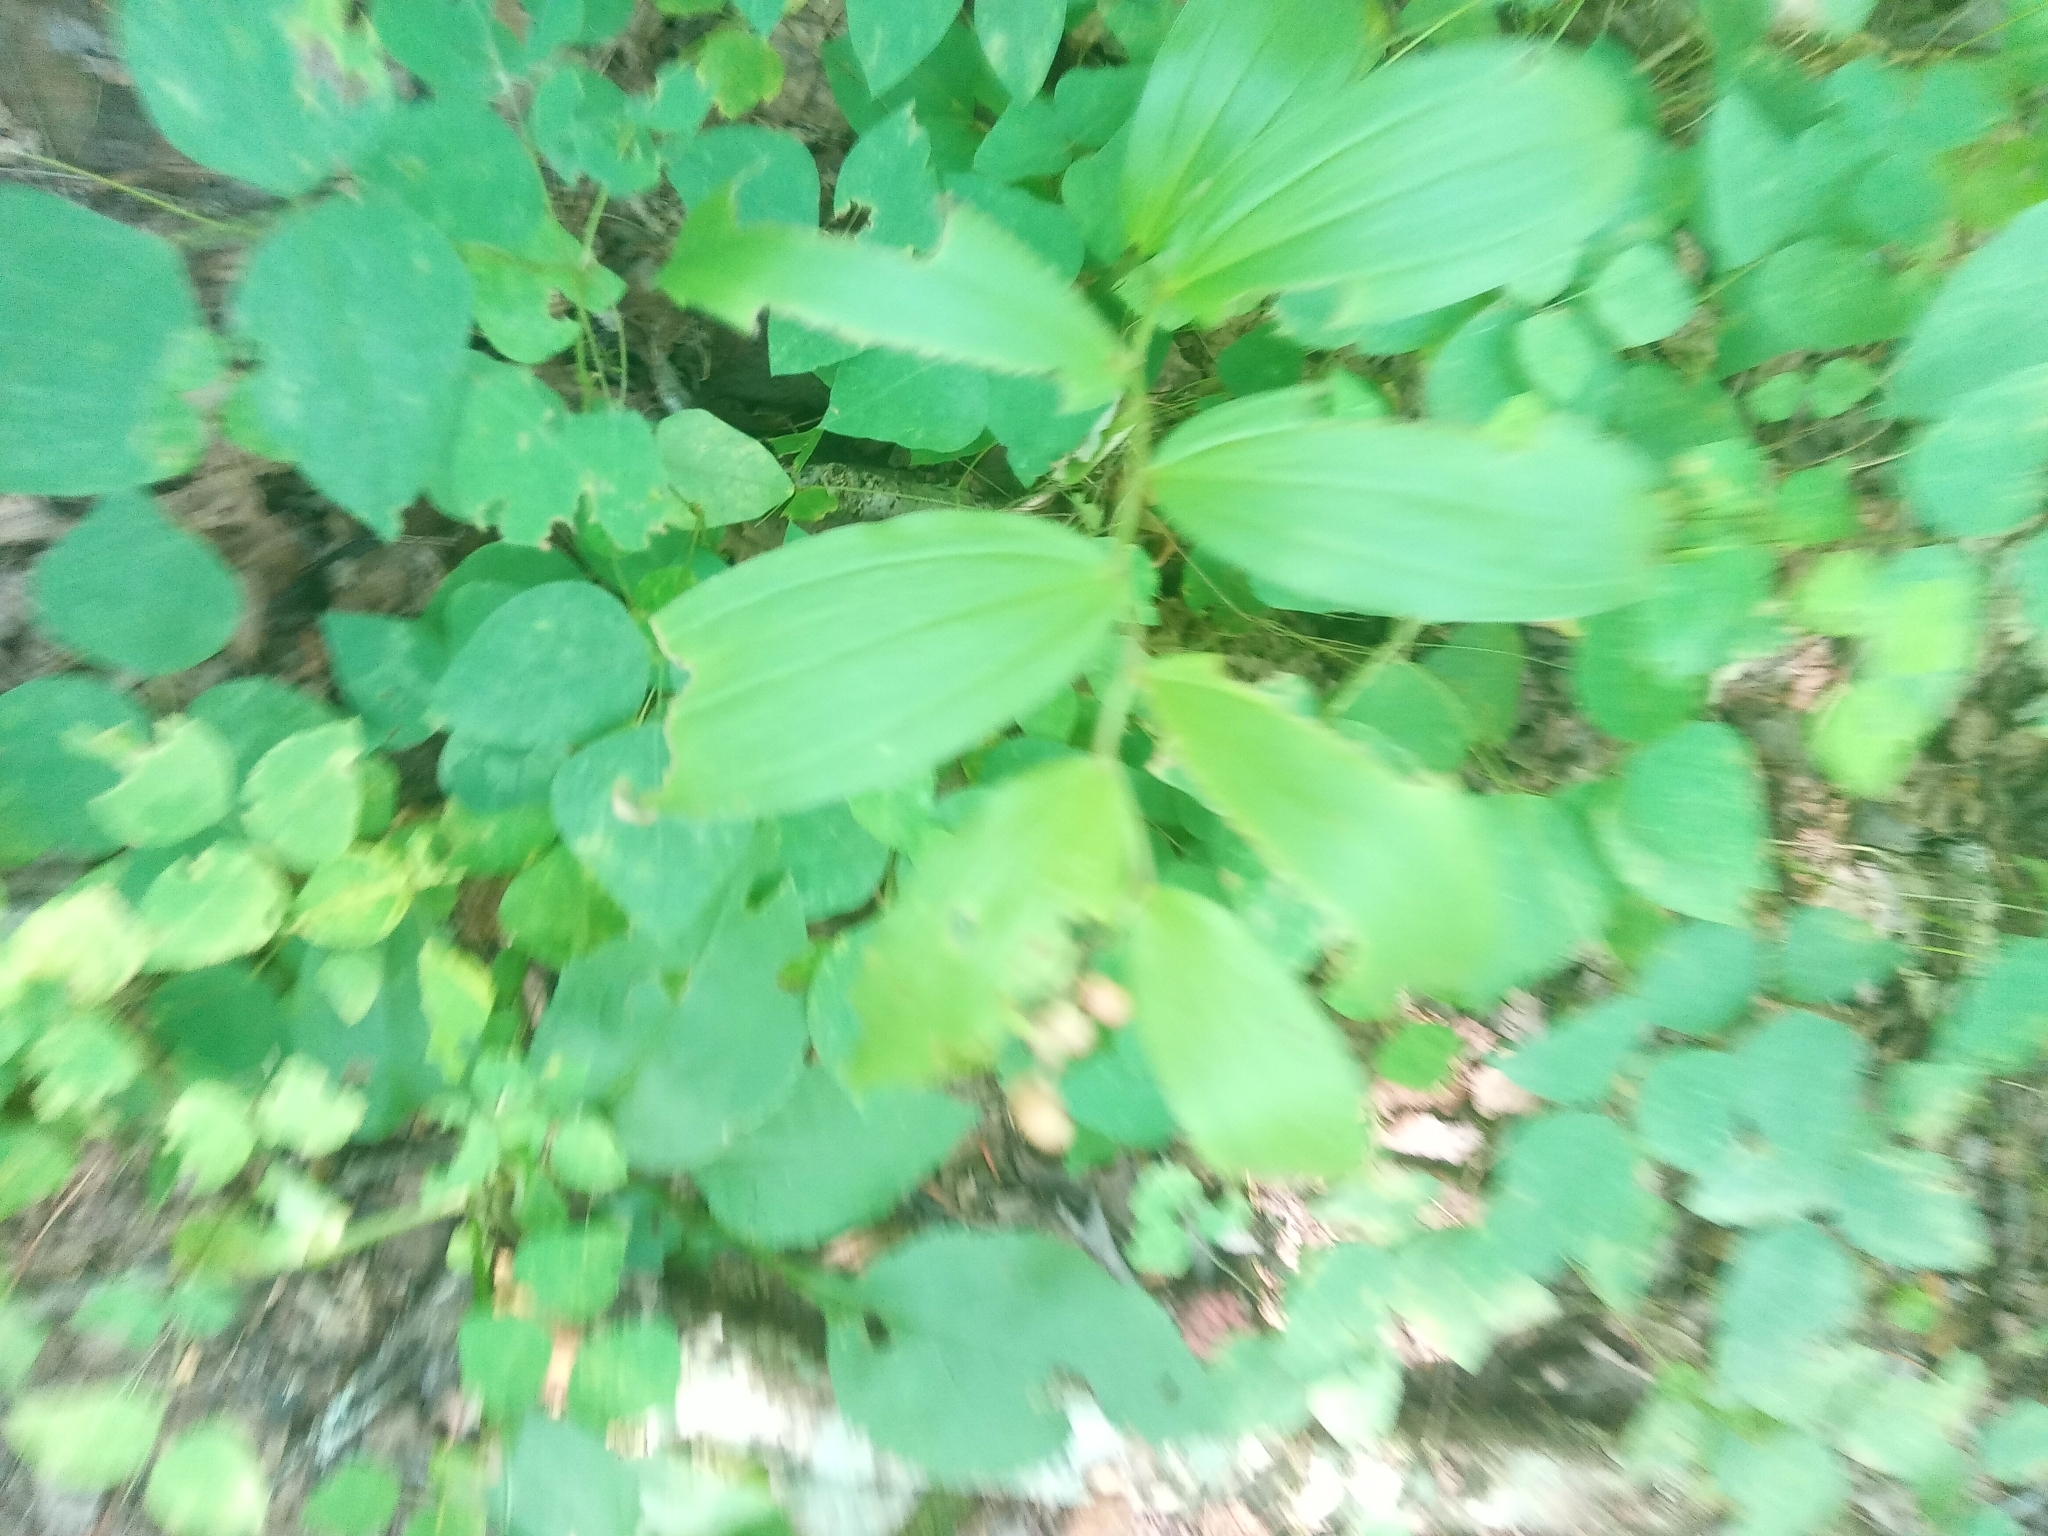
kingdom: Plantae
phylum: Tracheophyta
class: Liliopsida
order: Asparagales
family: Asparagaceae
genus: Maianthemum
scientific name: Maianthemum racemosum
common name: False spikenard
